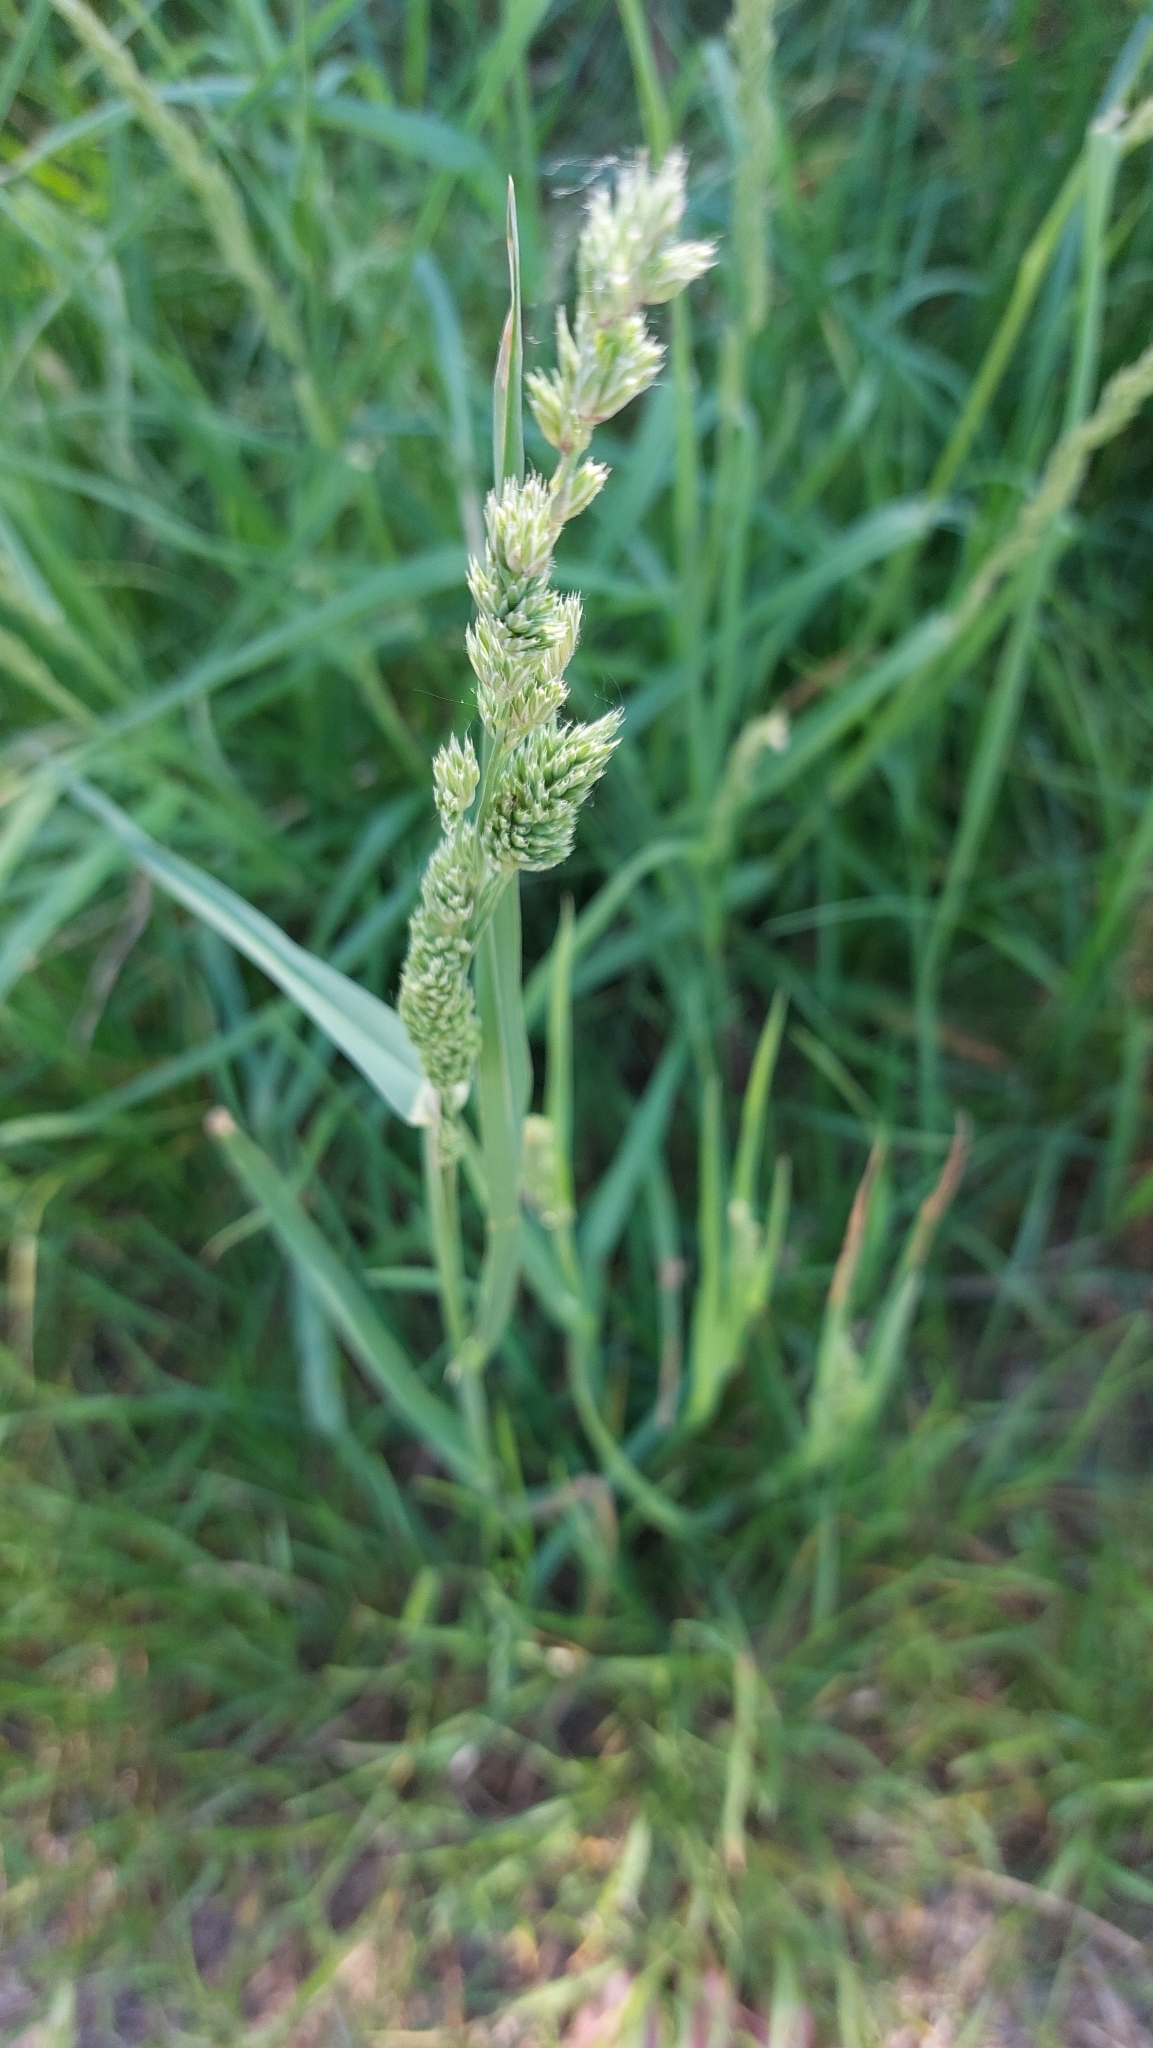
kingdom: Plantae
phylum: Tracheophyta
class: Liliopsida
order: Poales
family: Poaceae
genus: Dactylis
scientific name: Dactylis glomerata
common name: Orchardgrass
